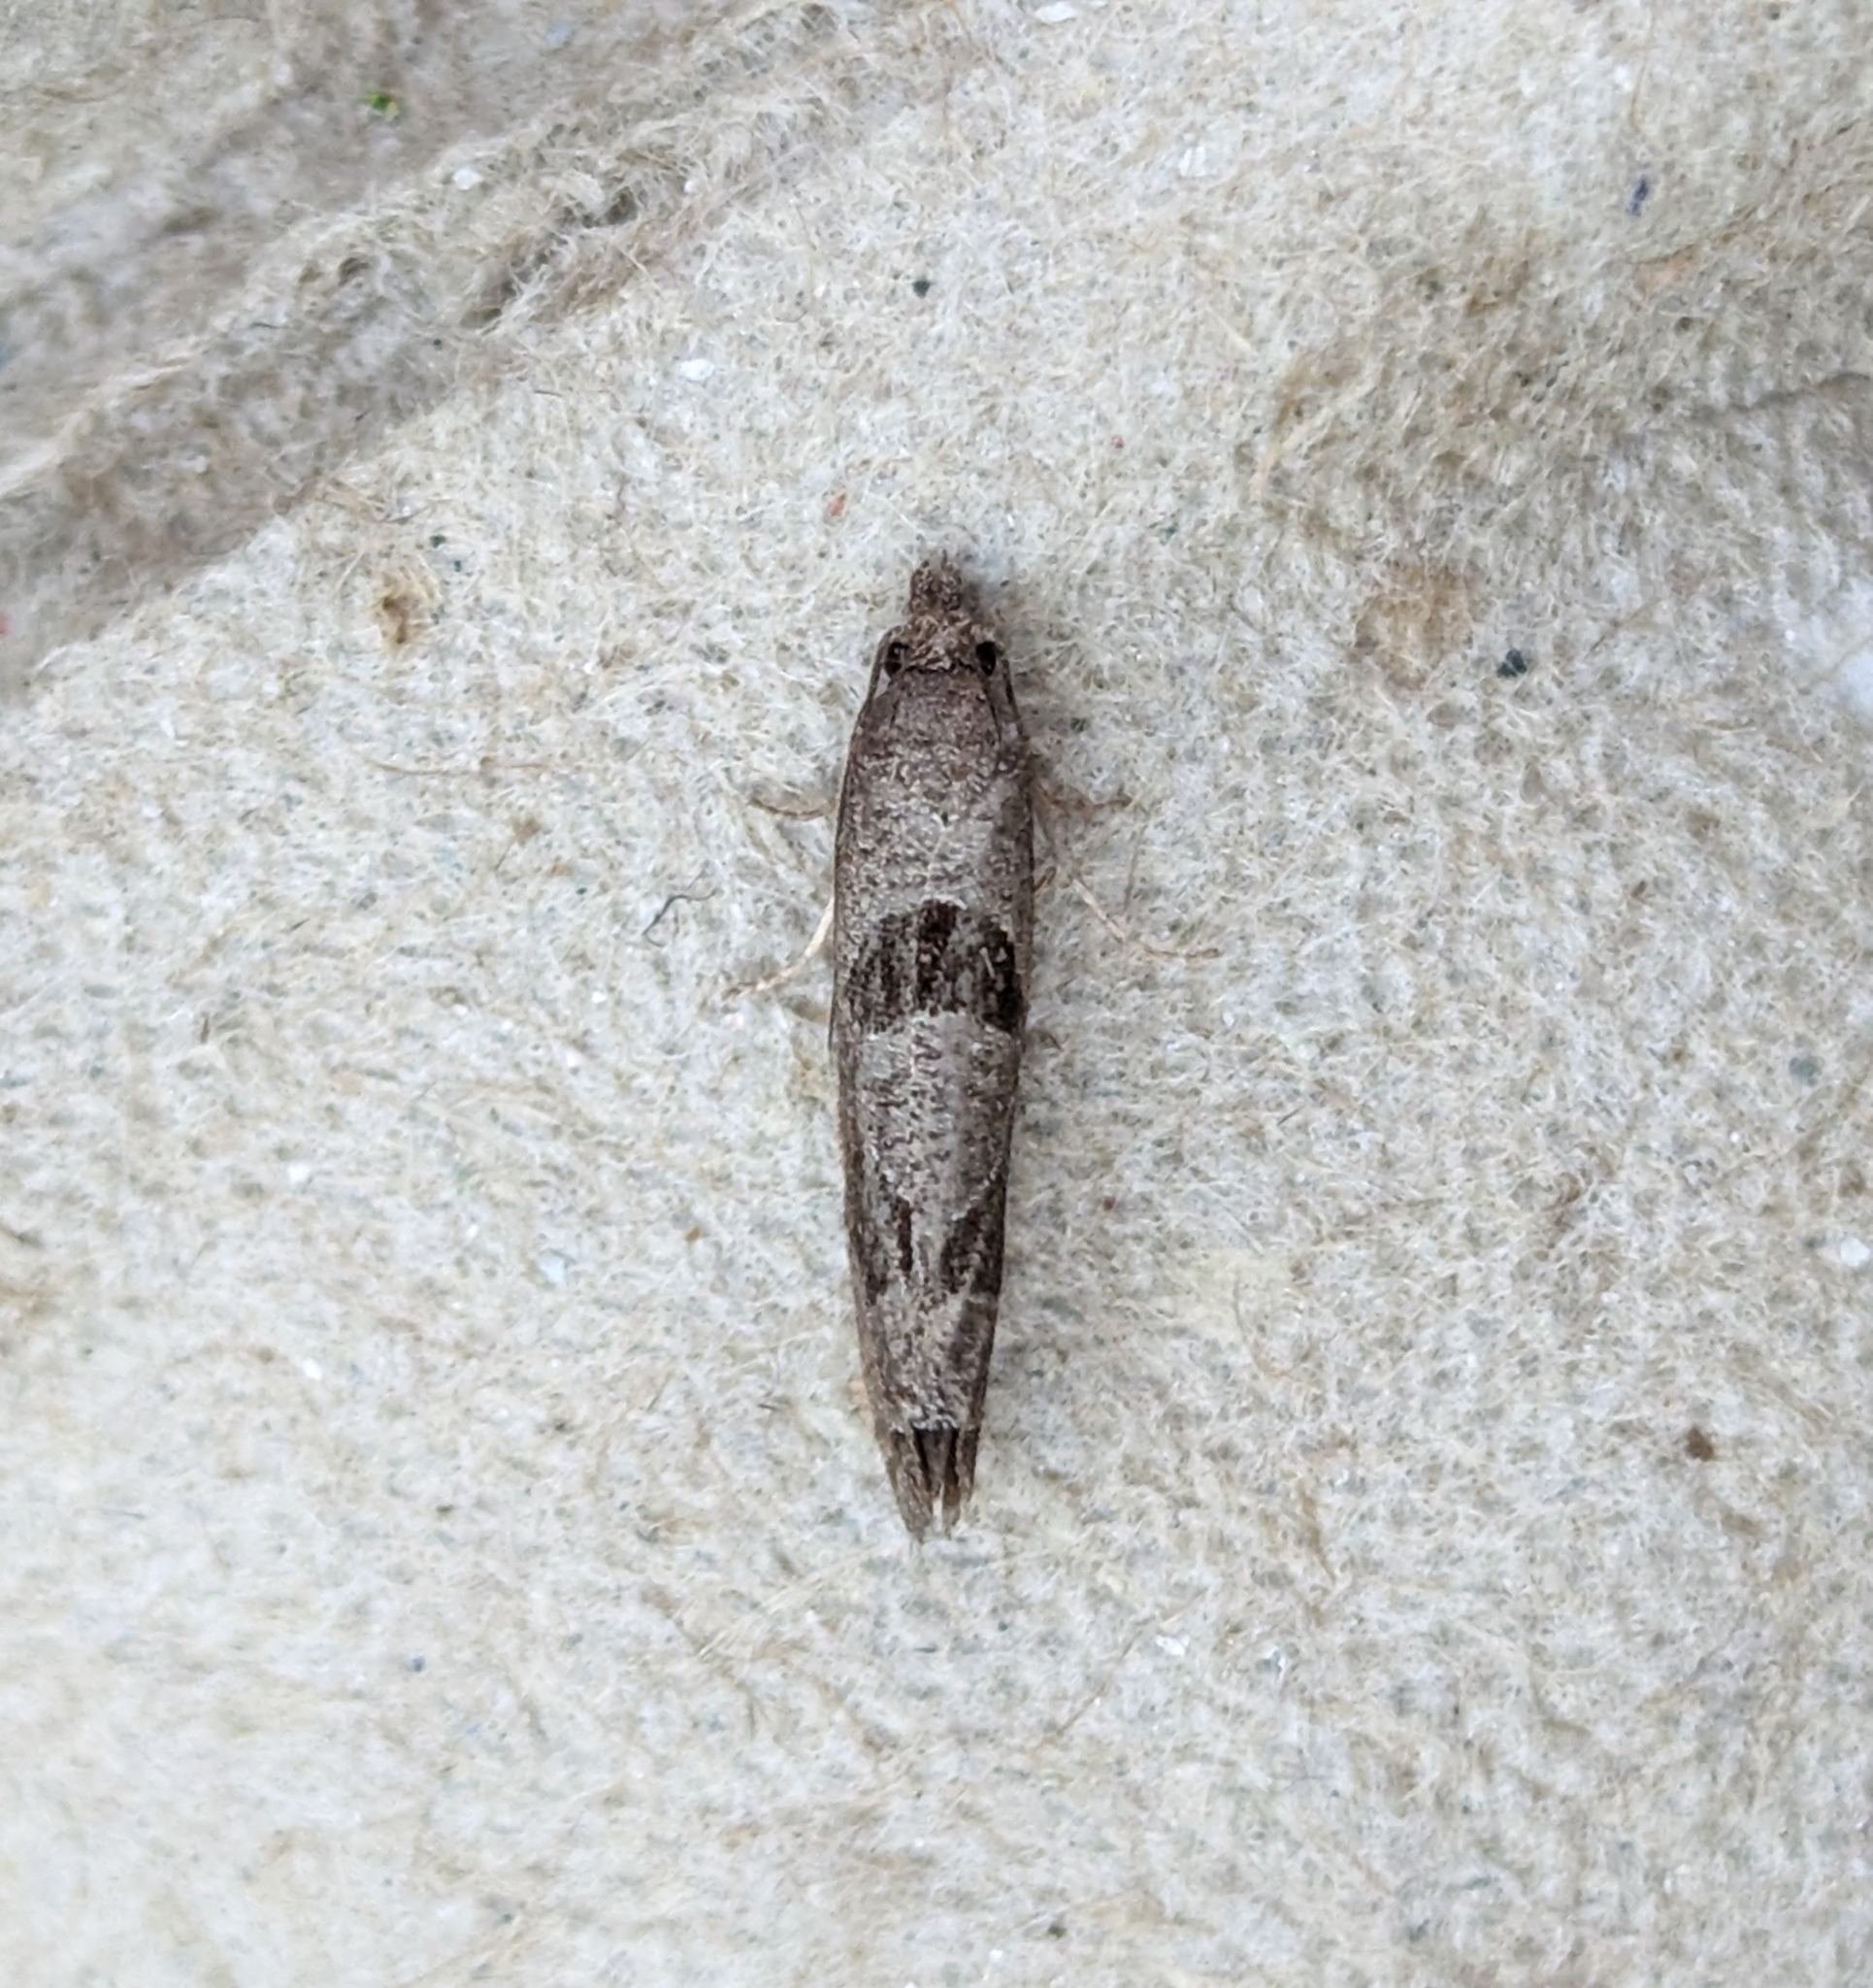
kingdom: Animalia
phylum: Arthropoda
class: Insecta
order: Lepidoptera
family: Tortricidae
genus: Pelochrista
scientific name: Pelochrista dorsisignatana
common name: Triangle-backed pelochrista moth
